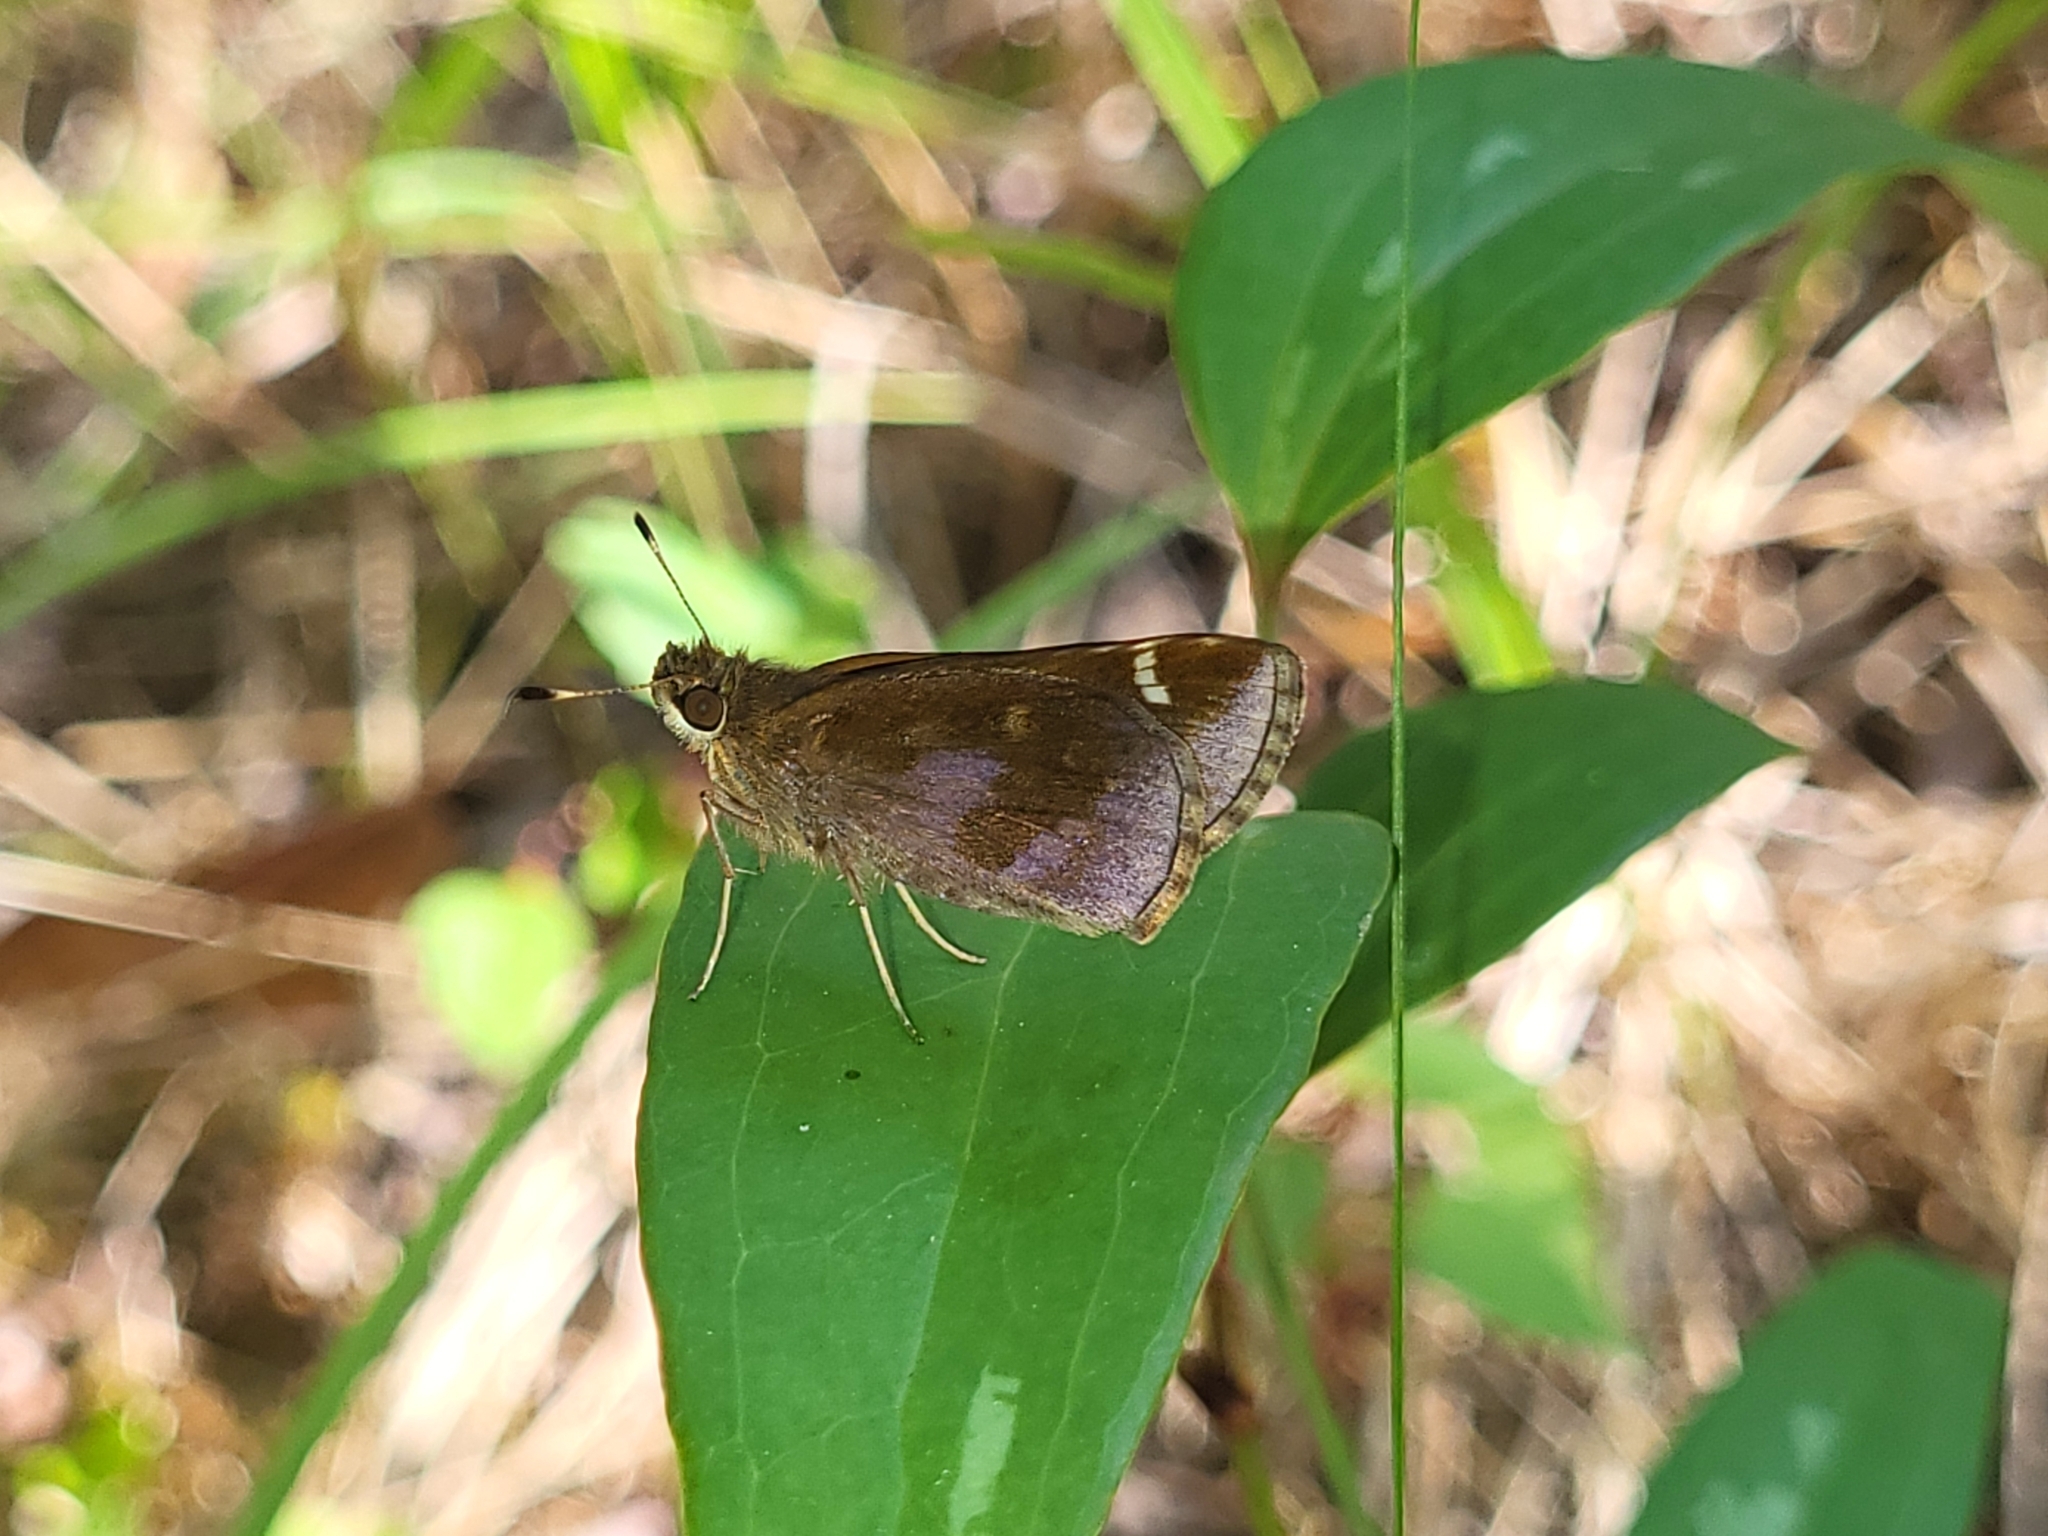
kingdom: Animalia
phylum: Arthropoda
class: Insecta
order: Lepidoptera
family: Hesperiidae
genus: Lerema
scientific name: Lerema accius
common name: Clouded skipper
